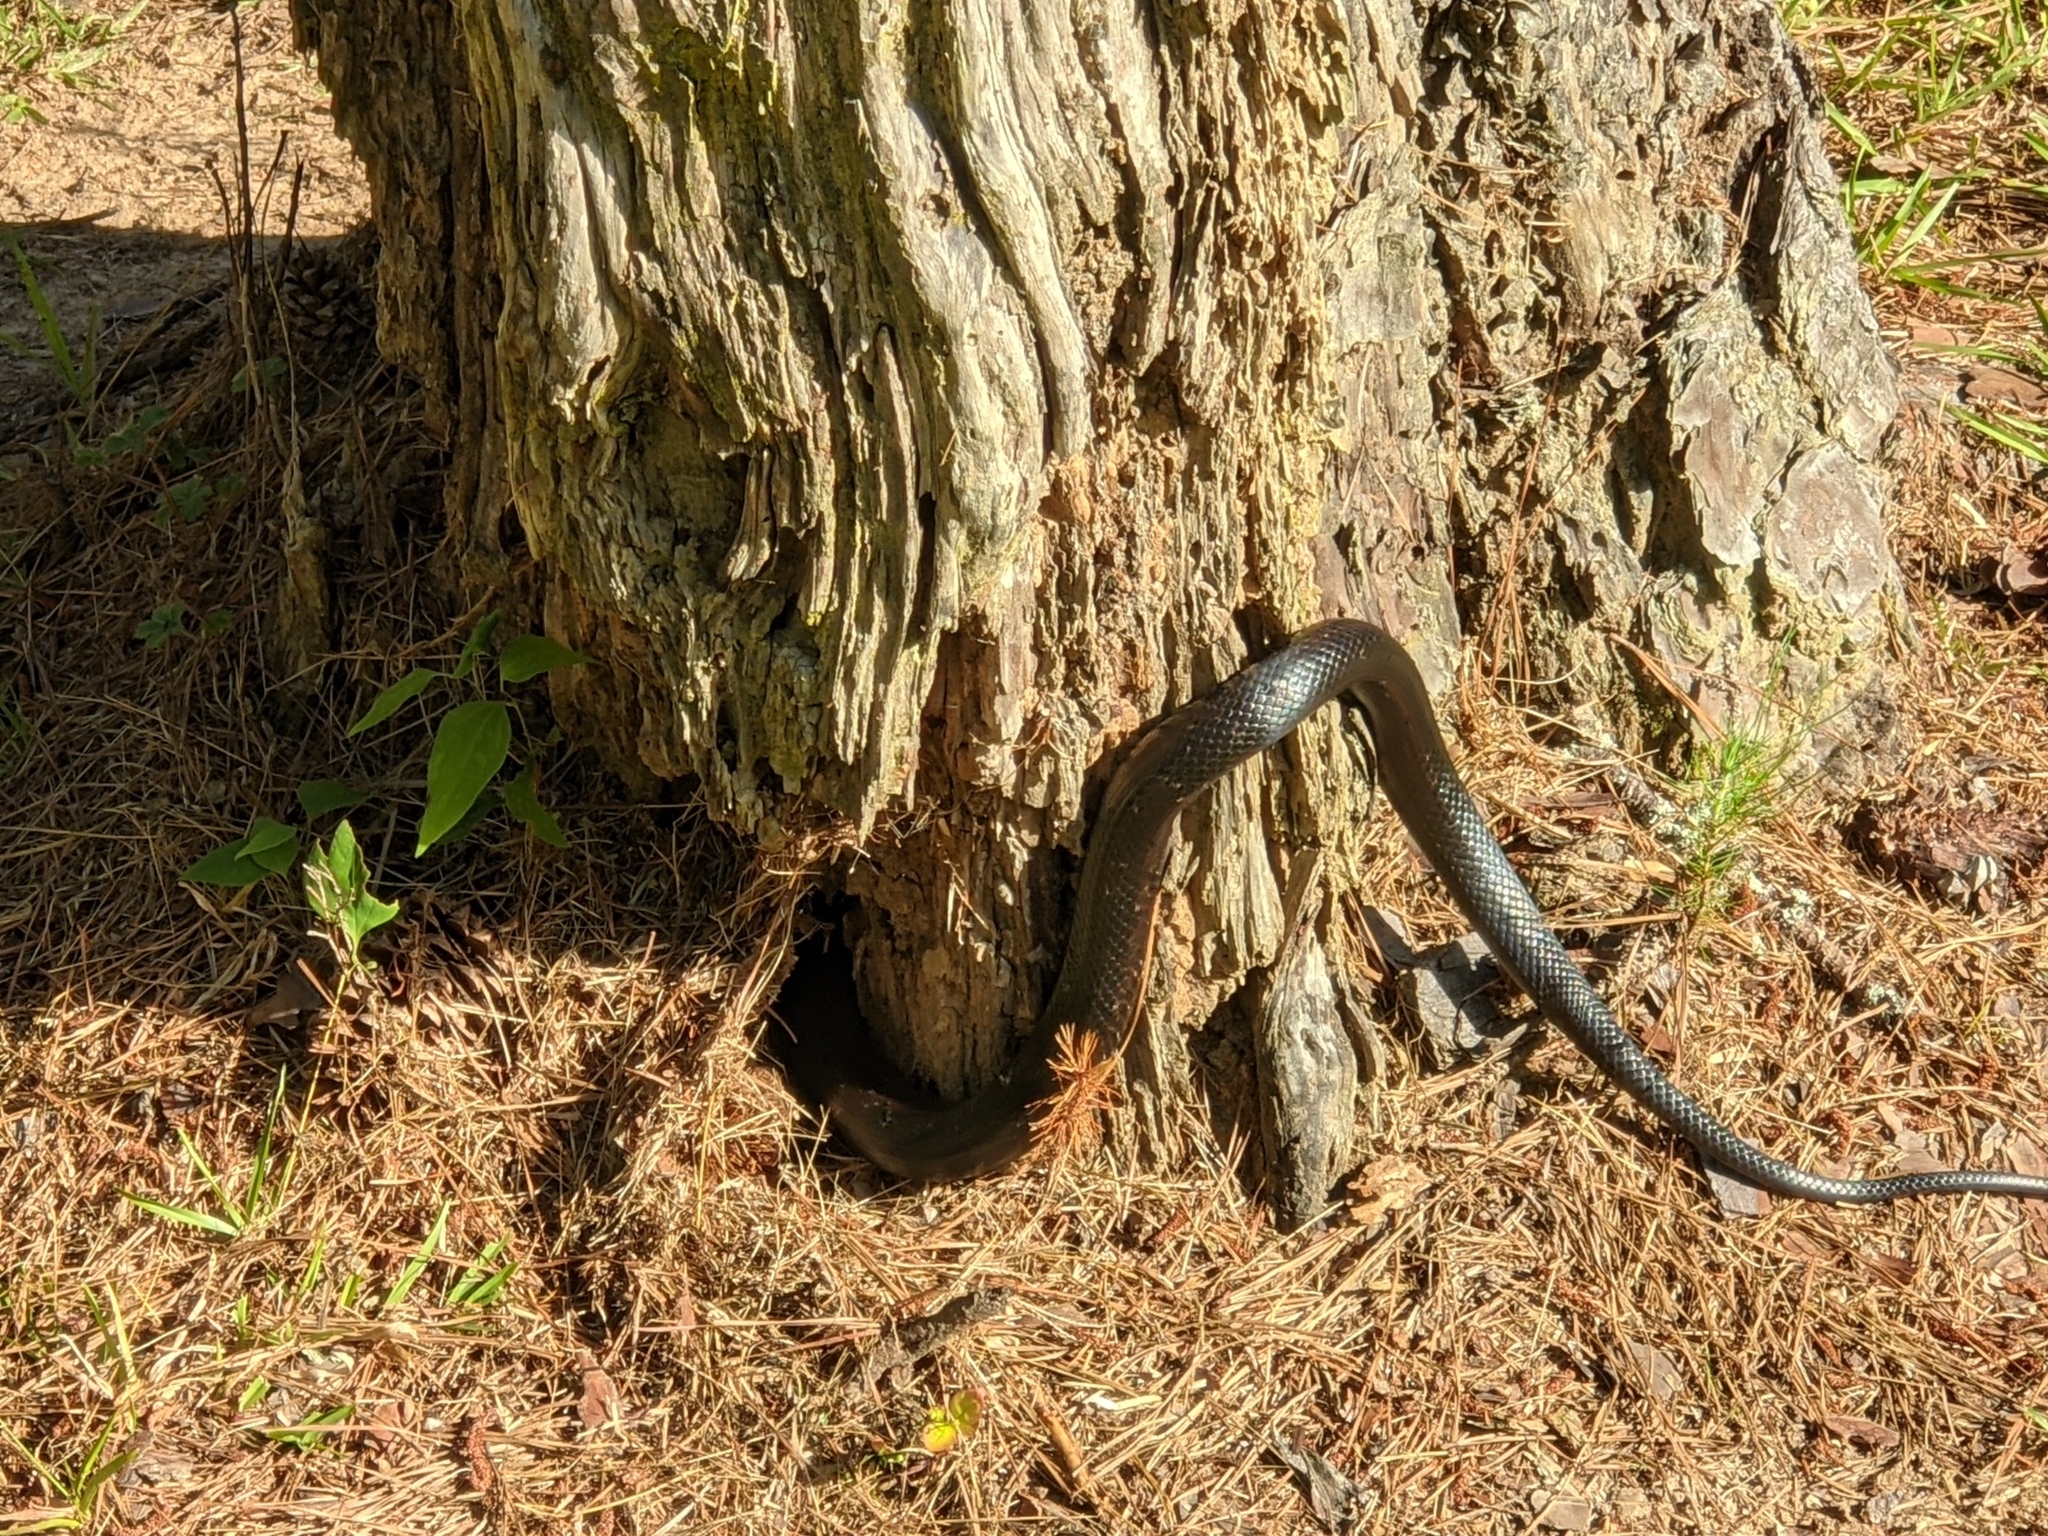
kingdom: Animalia
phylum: Chordata
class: Squamata
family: Colubridae
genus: Pantherophis
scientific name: Pantherophis alleghaniensis
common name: Eastern rat snake
